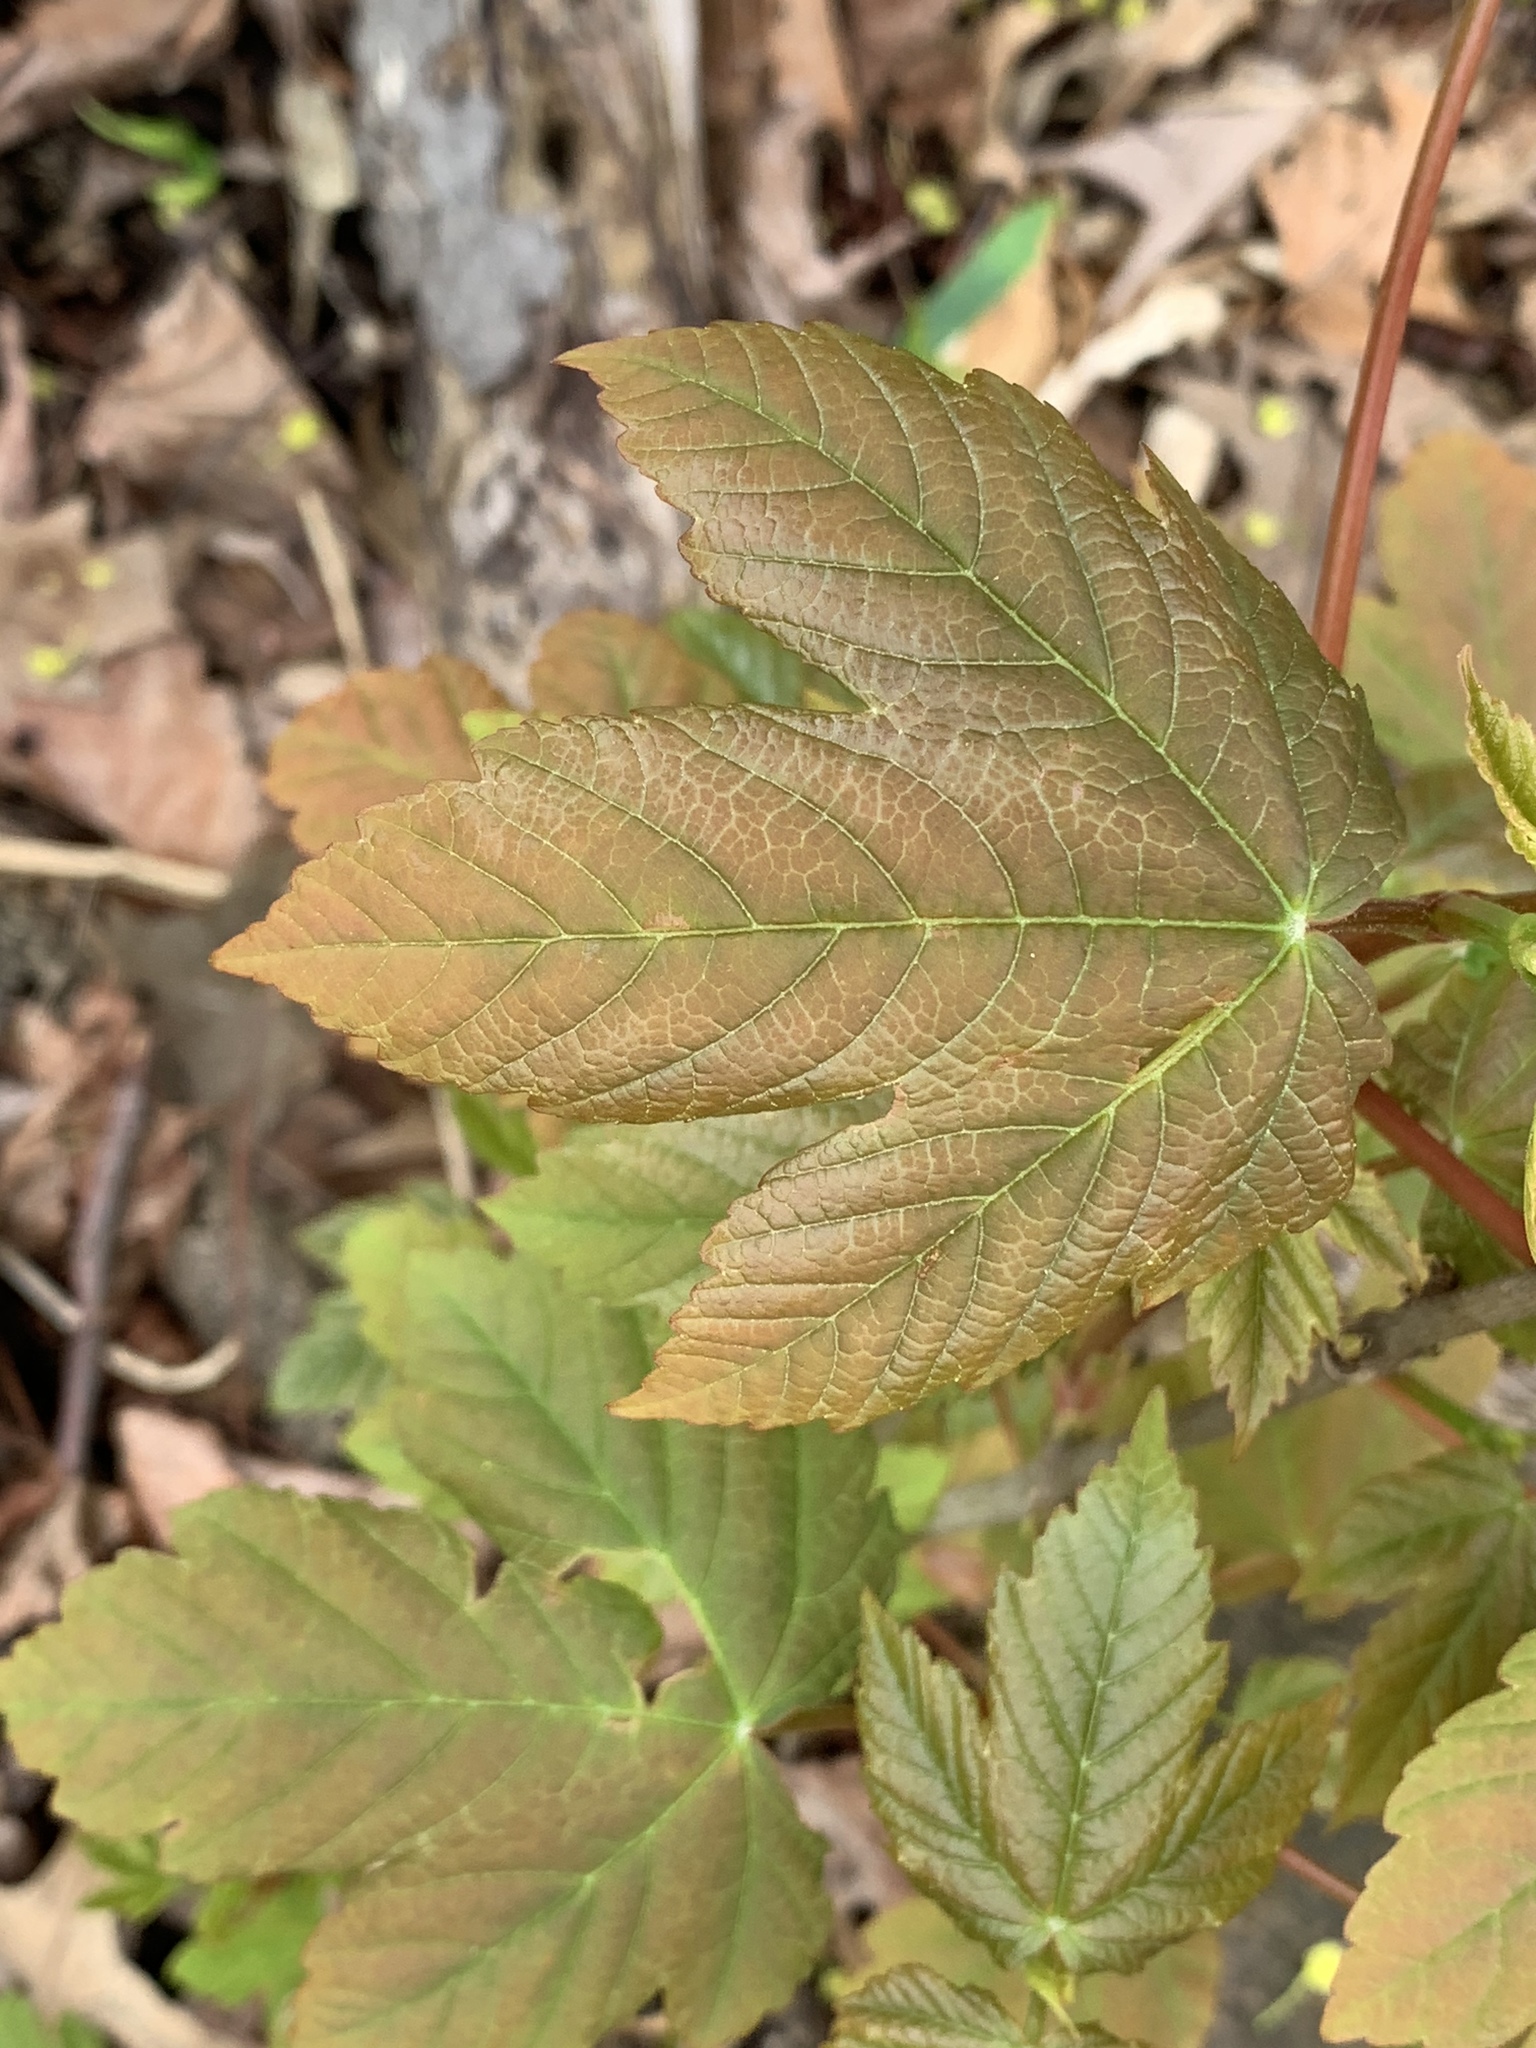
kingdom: Plantae
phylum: Tracheophyta
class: Magnoliopsida
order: Sapindales
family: Sapindaceae
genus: Acer
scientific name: Acer pseudoplatanus
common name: Sycamore
